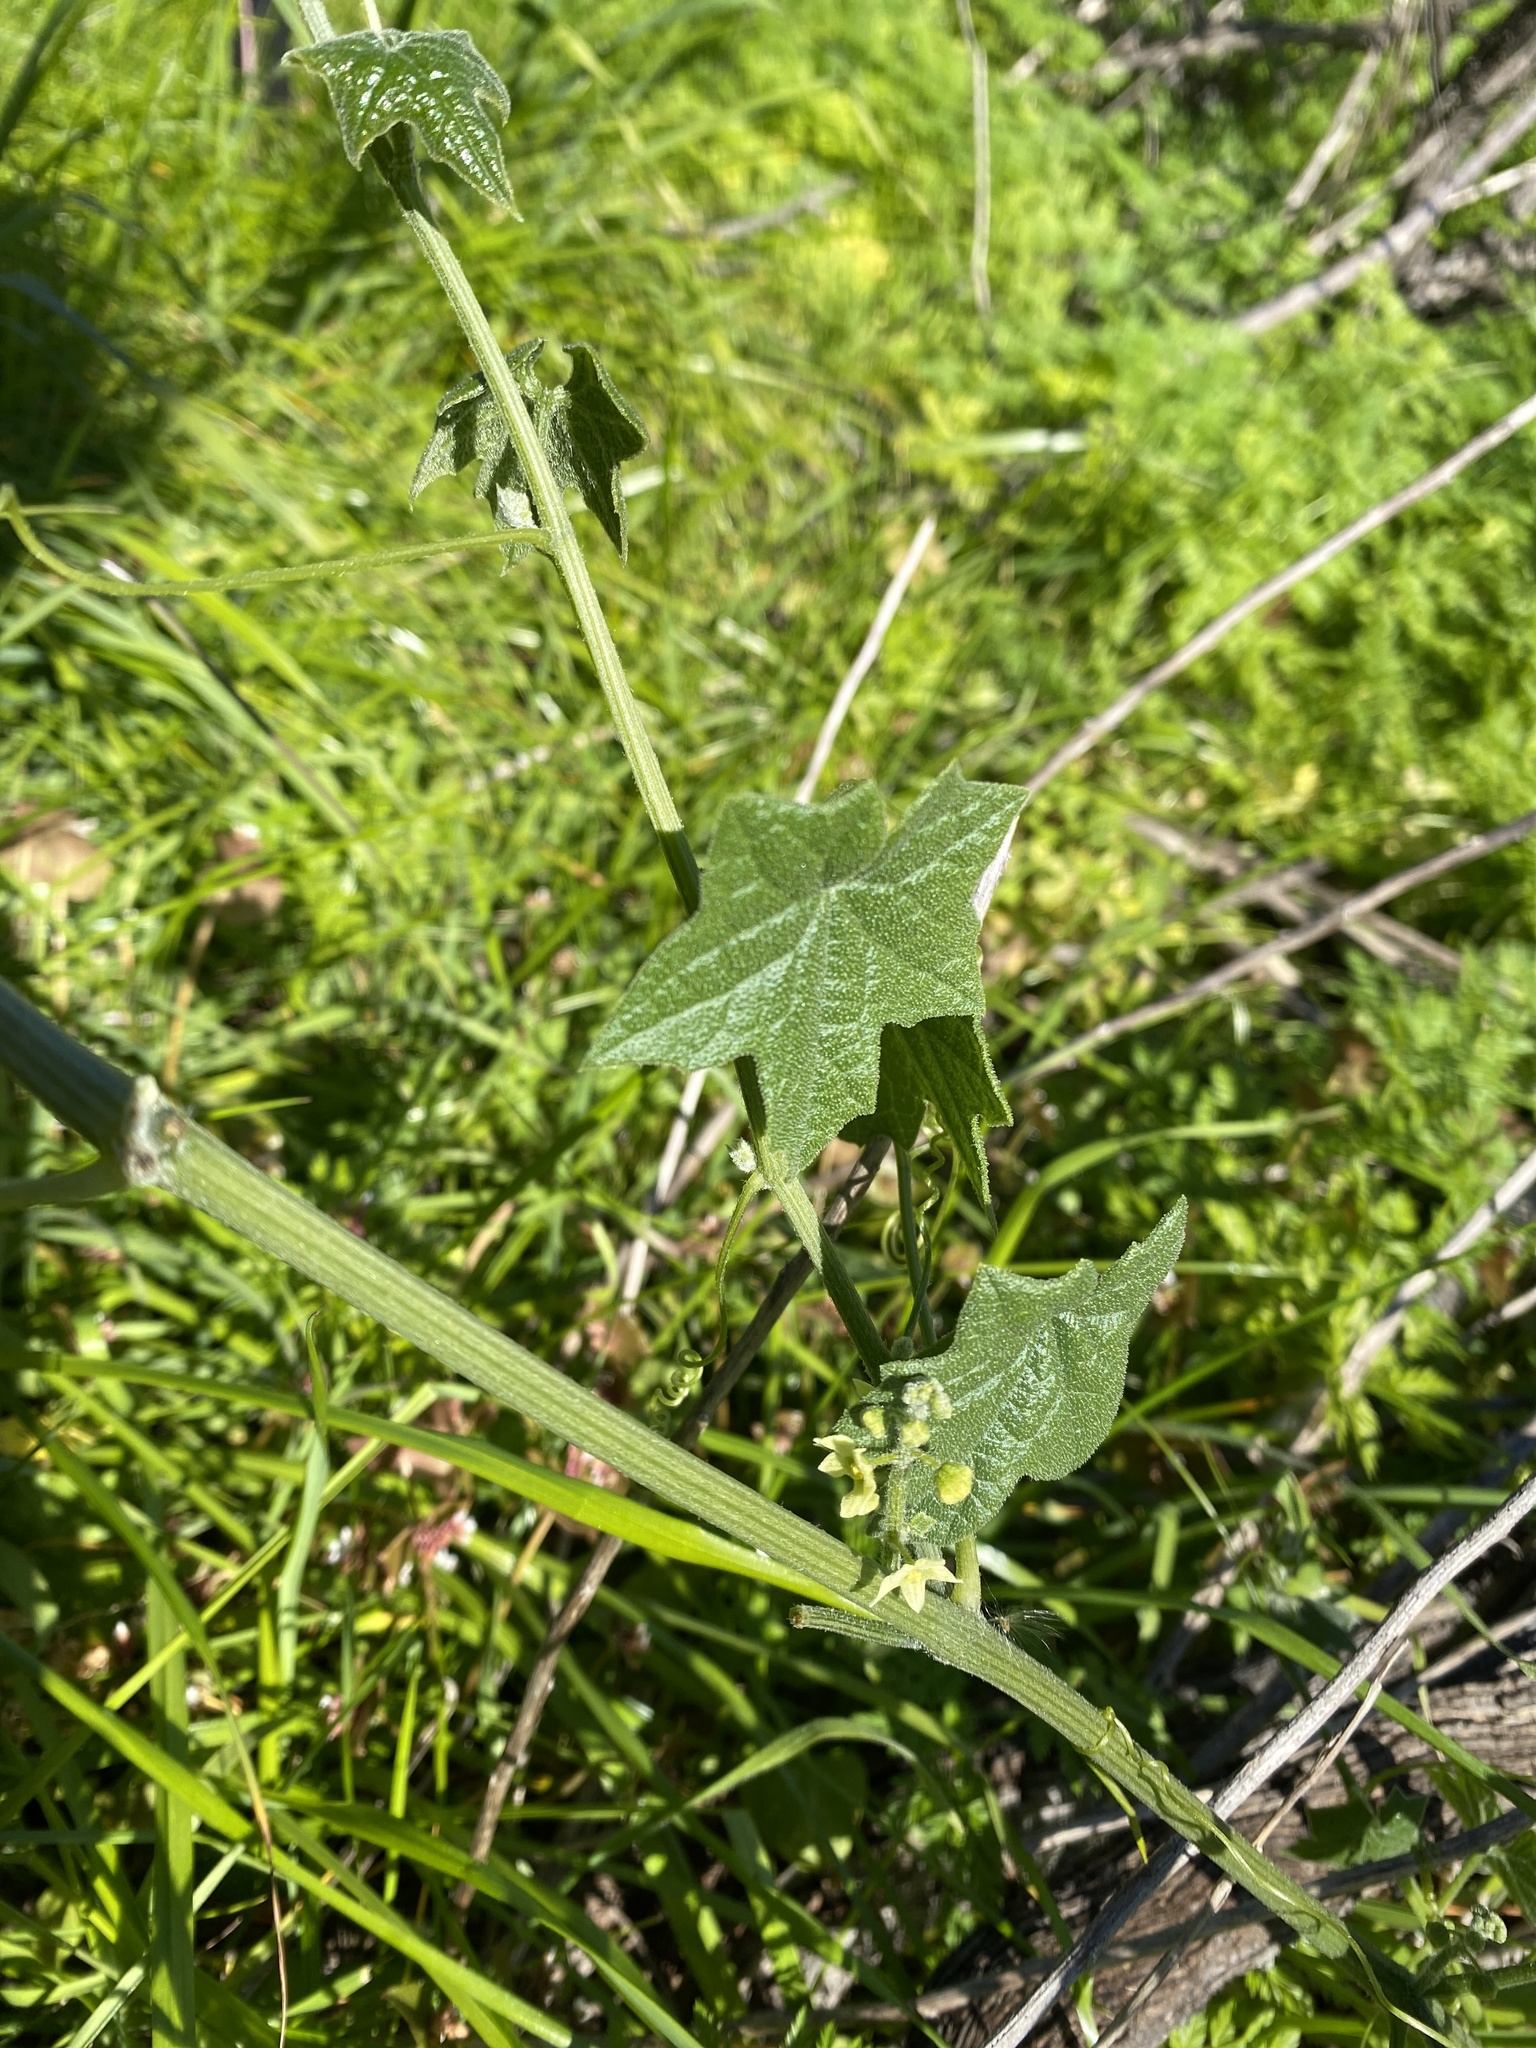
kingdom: Plantae
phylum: Tracheophyta
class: Magnoliopsida
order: Cucurbitales
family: Cucurbitaceae
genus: Marah
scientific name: Marah fabacea
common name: California manroot
